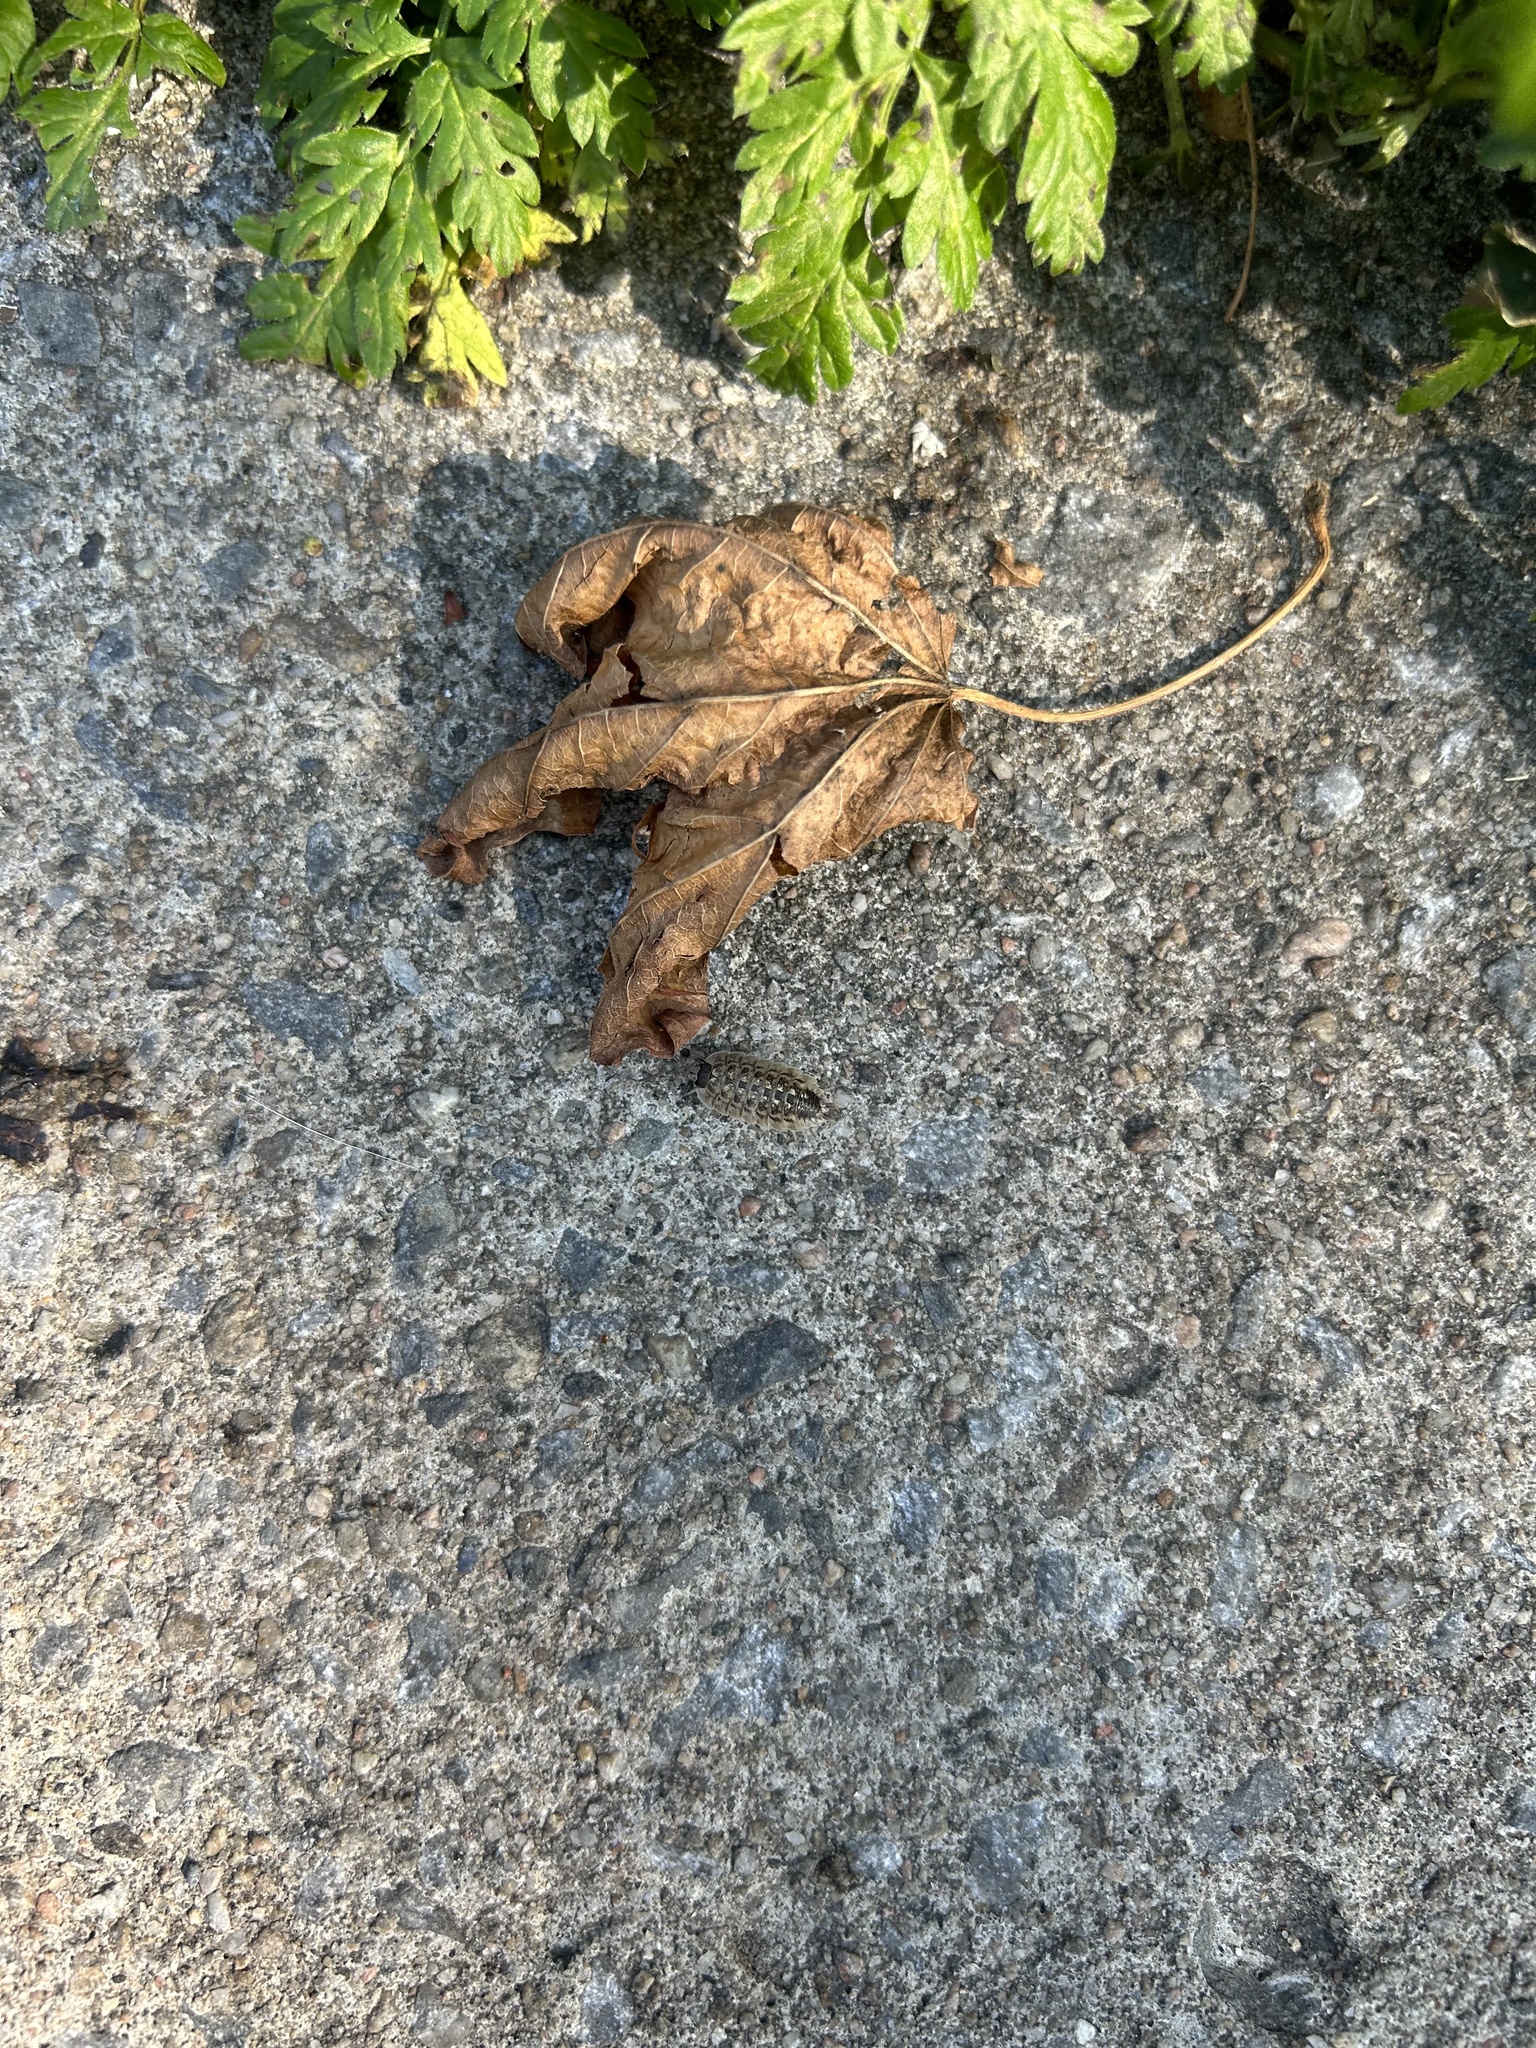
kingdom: Animalia
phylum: Arthropoda
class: Malacostraca
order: Isopoda
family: Porcellionidae
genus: Porcellio
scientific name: Porcellio spinicornis
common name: Painted woodlouse
